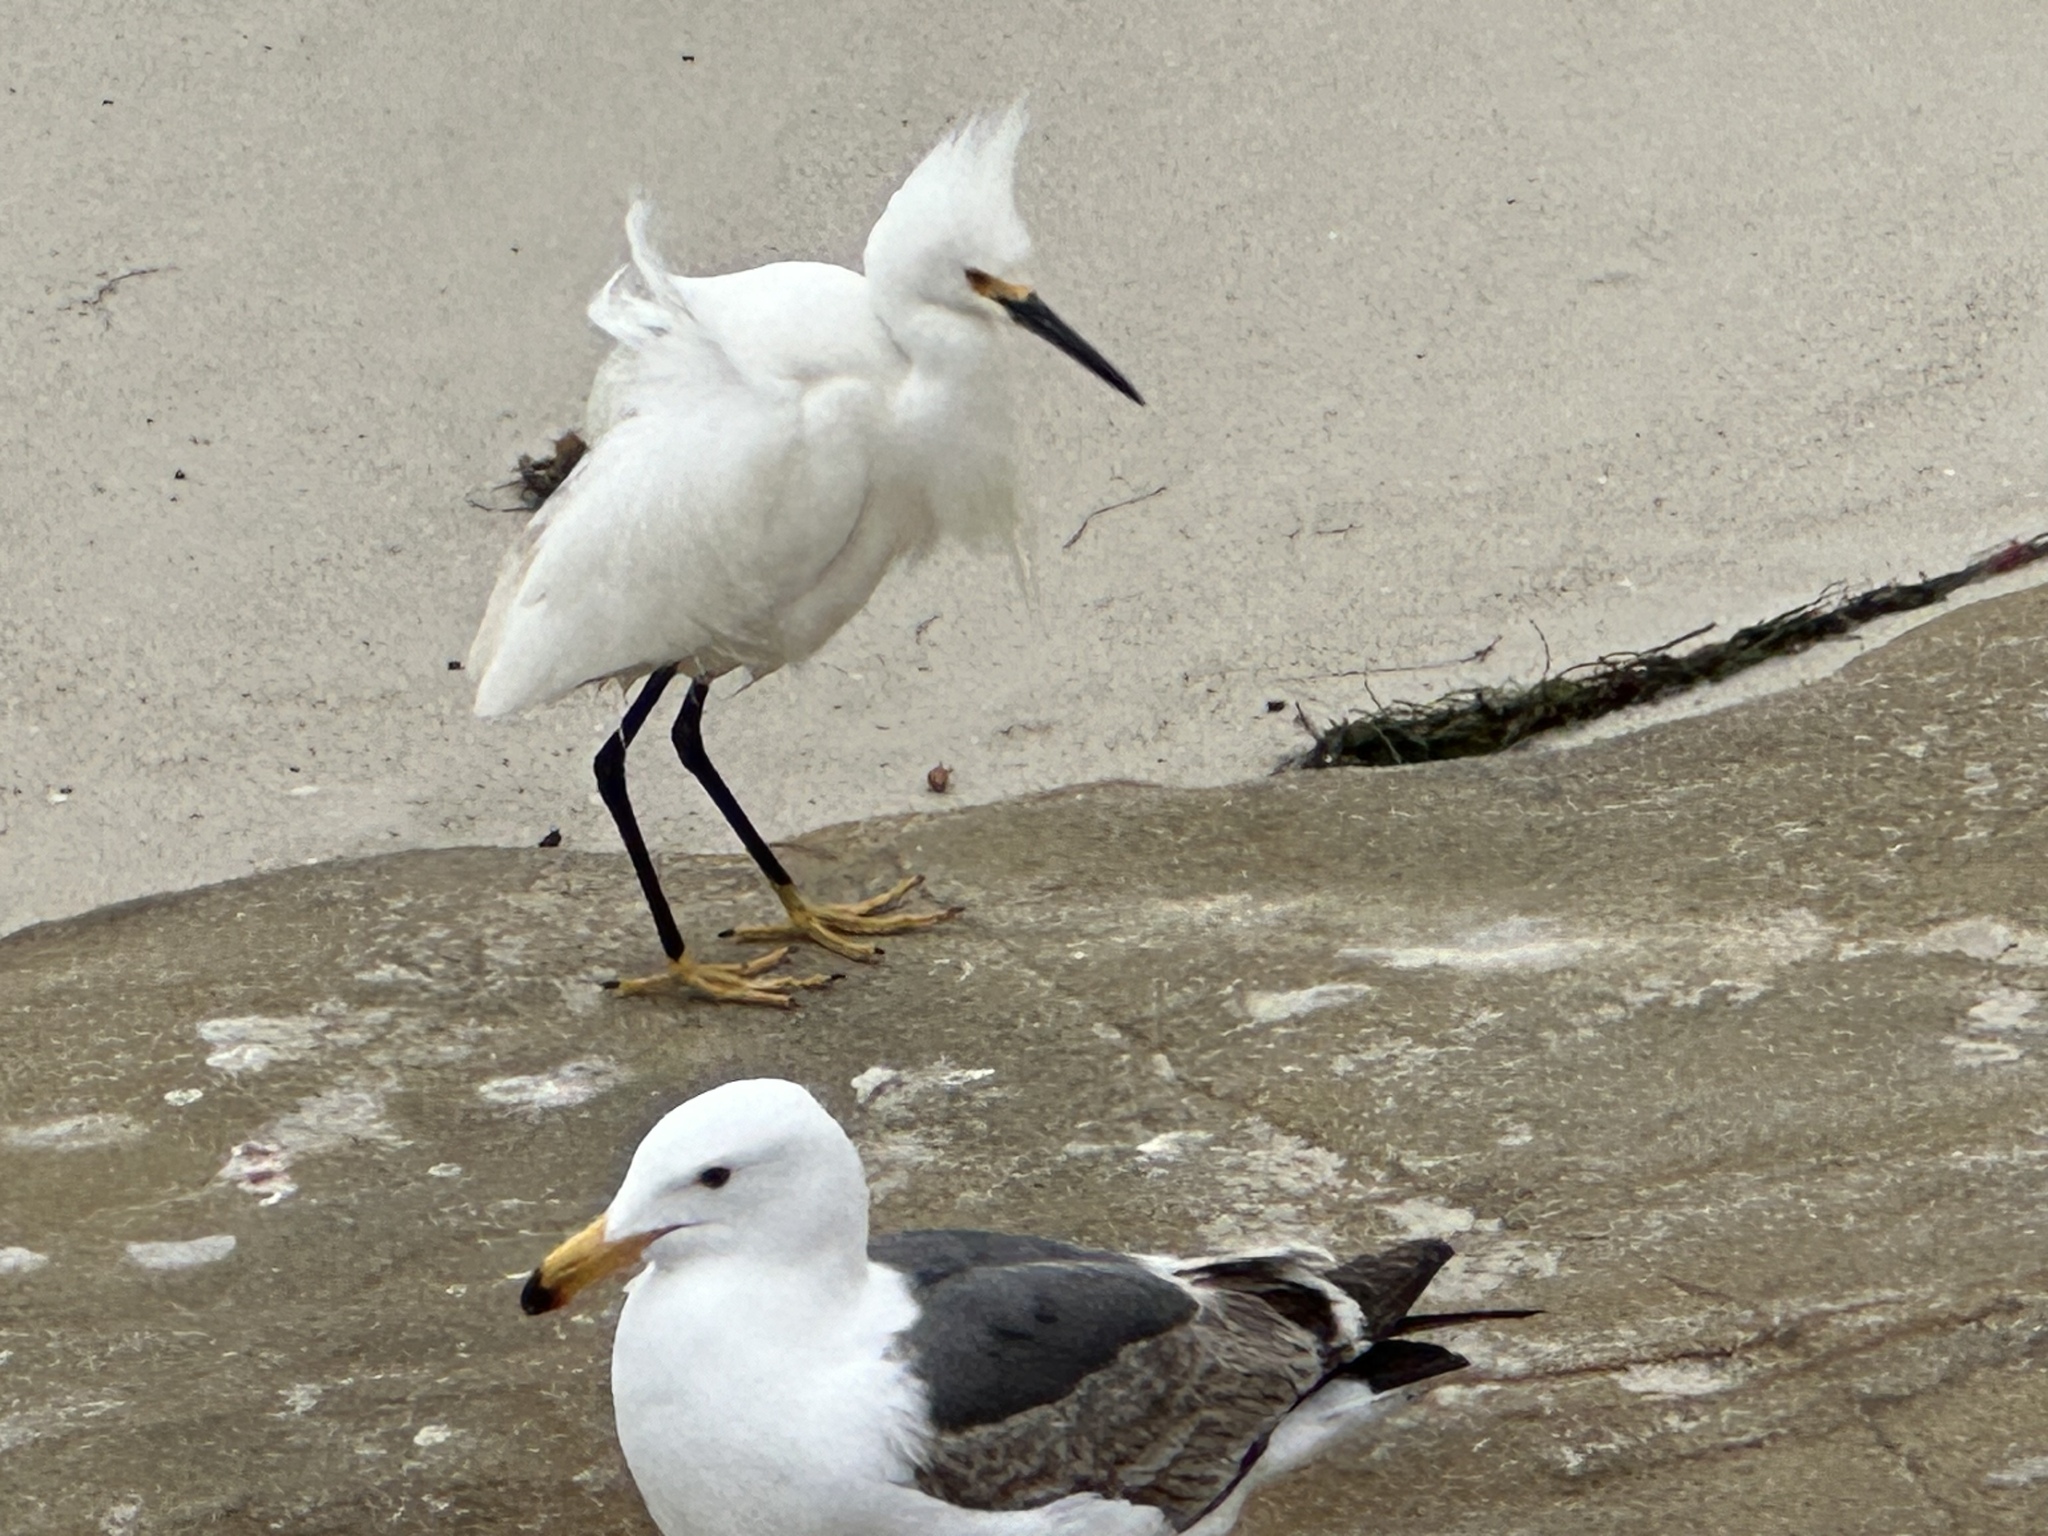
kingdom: Animalia
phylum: Chordata
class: Aves
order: Pelecaniformes
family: Ardeidae
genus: Egretta
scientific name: Egretta thula
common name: Snowy egret
